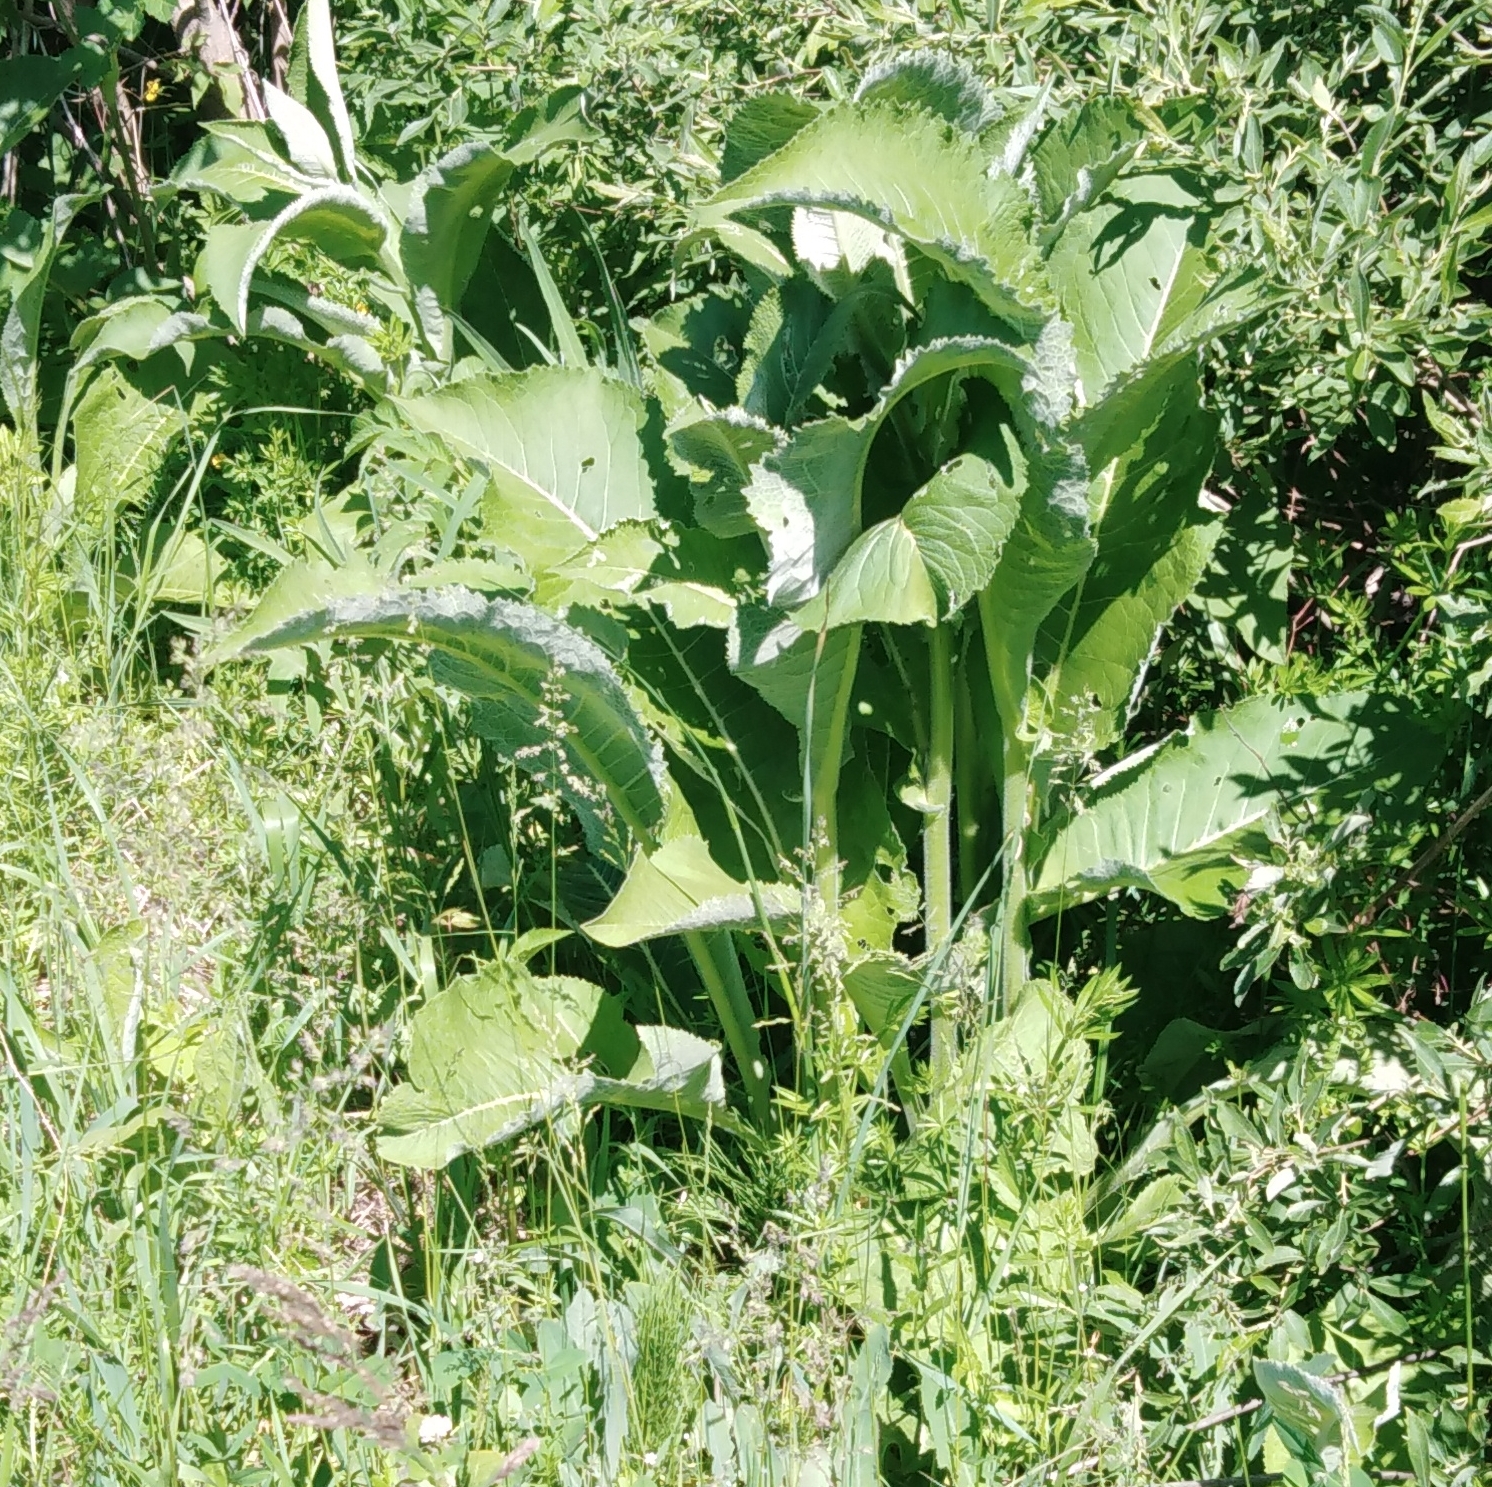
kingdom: Plantae
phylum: Tracheophyta
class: Magnoliopsida
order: Asterales
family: Asteraceae
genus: Inula
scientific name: Inula helenium
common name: Elecampane
